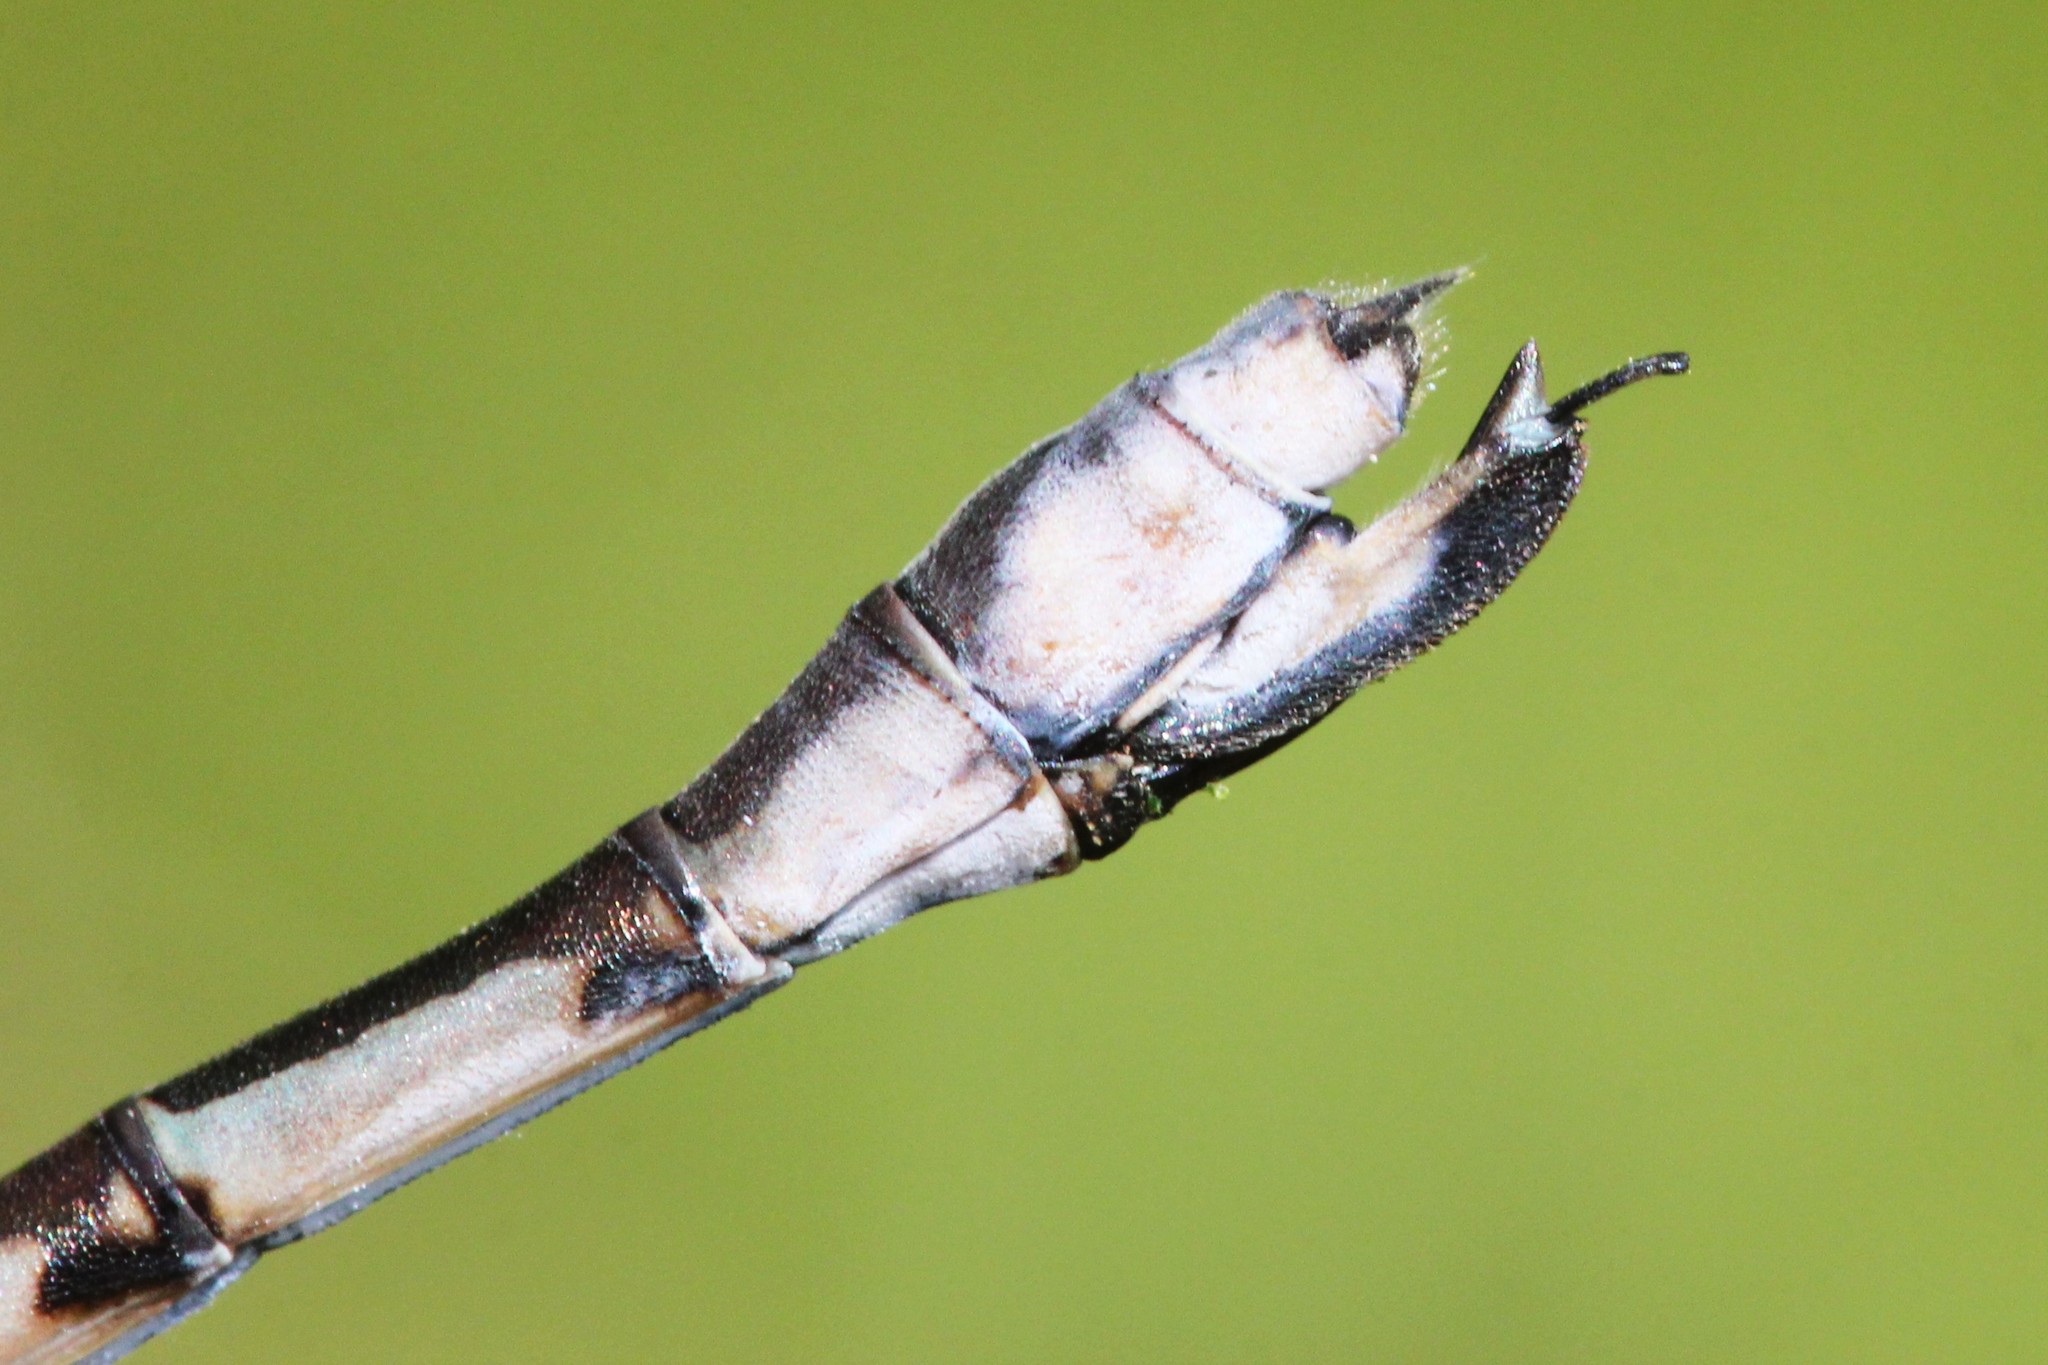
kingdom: Animalia
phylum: Arthropoda
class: Insecta
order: Odonata
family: Lestidae
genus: Lestes
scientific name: Lestes forcipatus
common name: Sweetflag spreadwing
